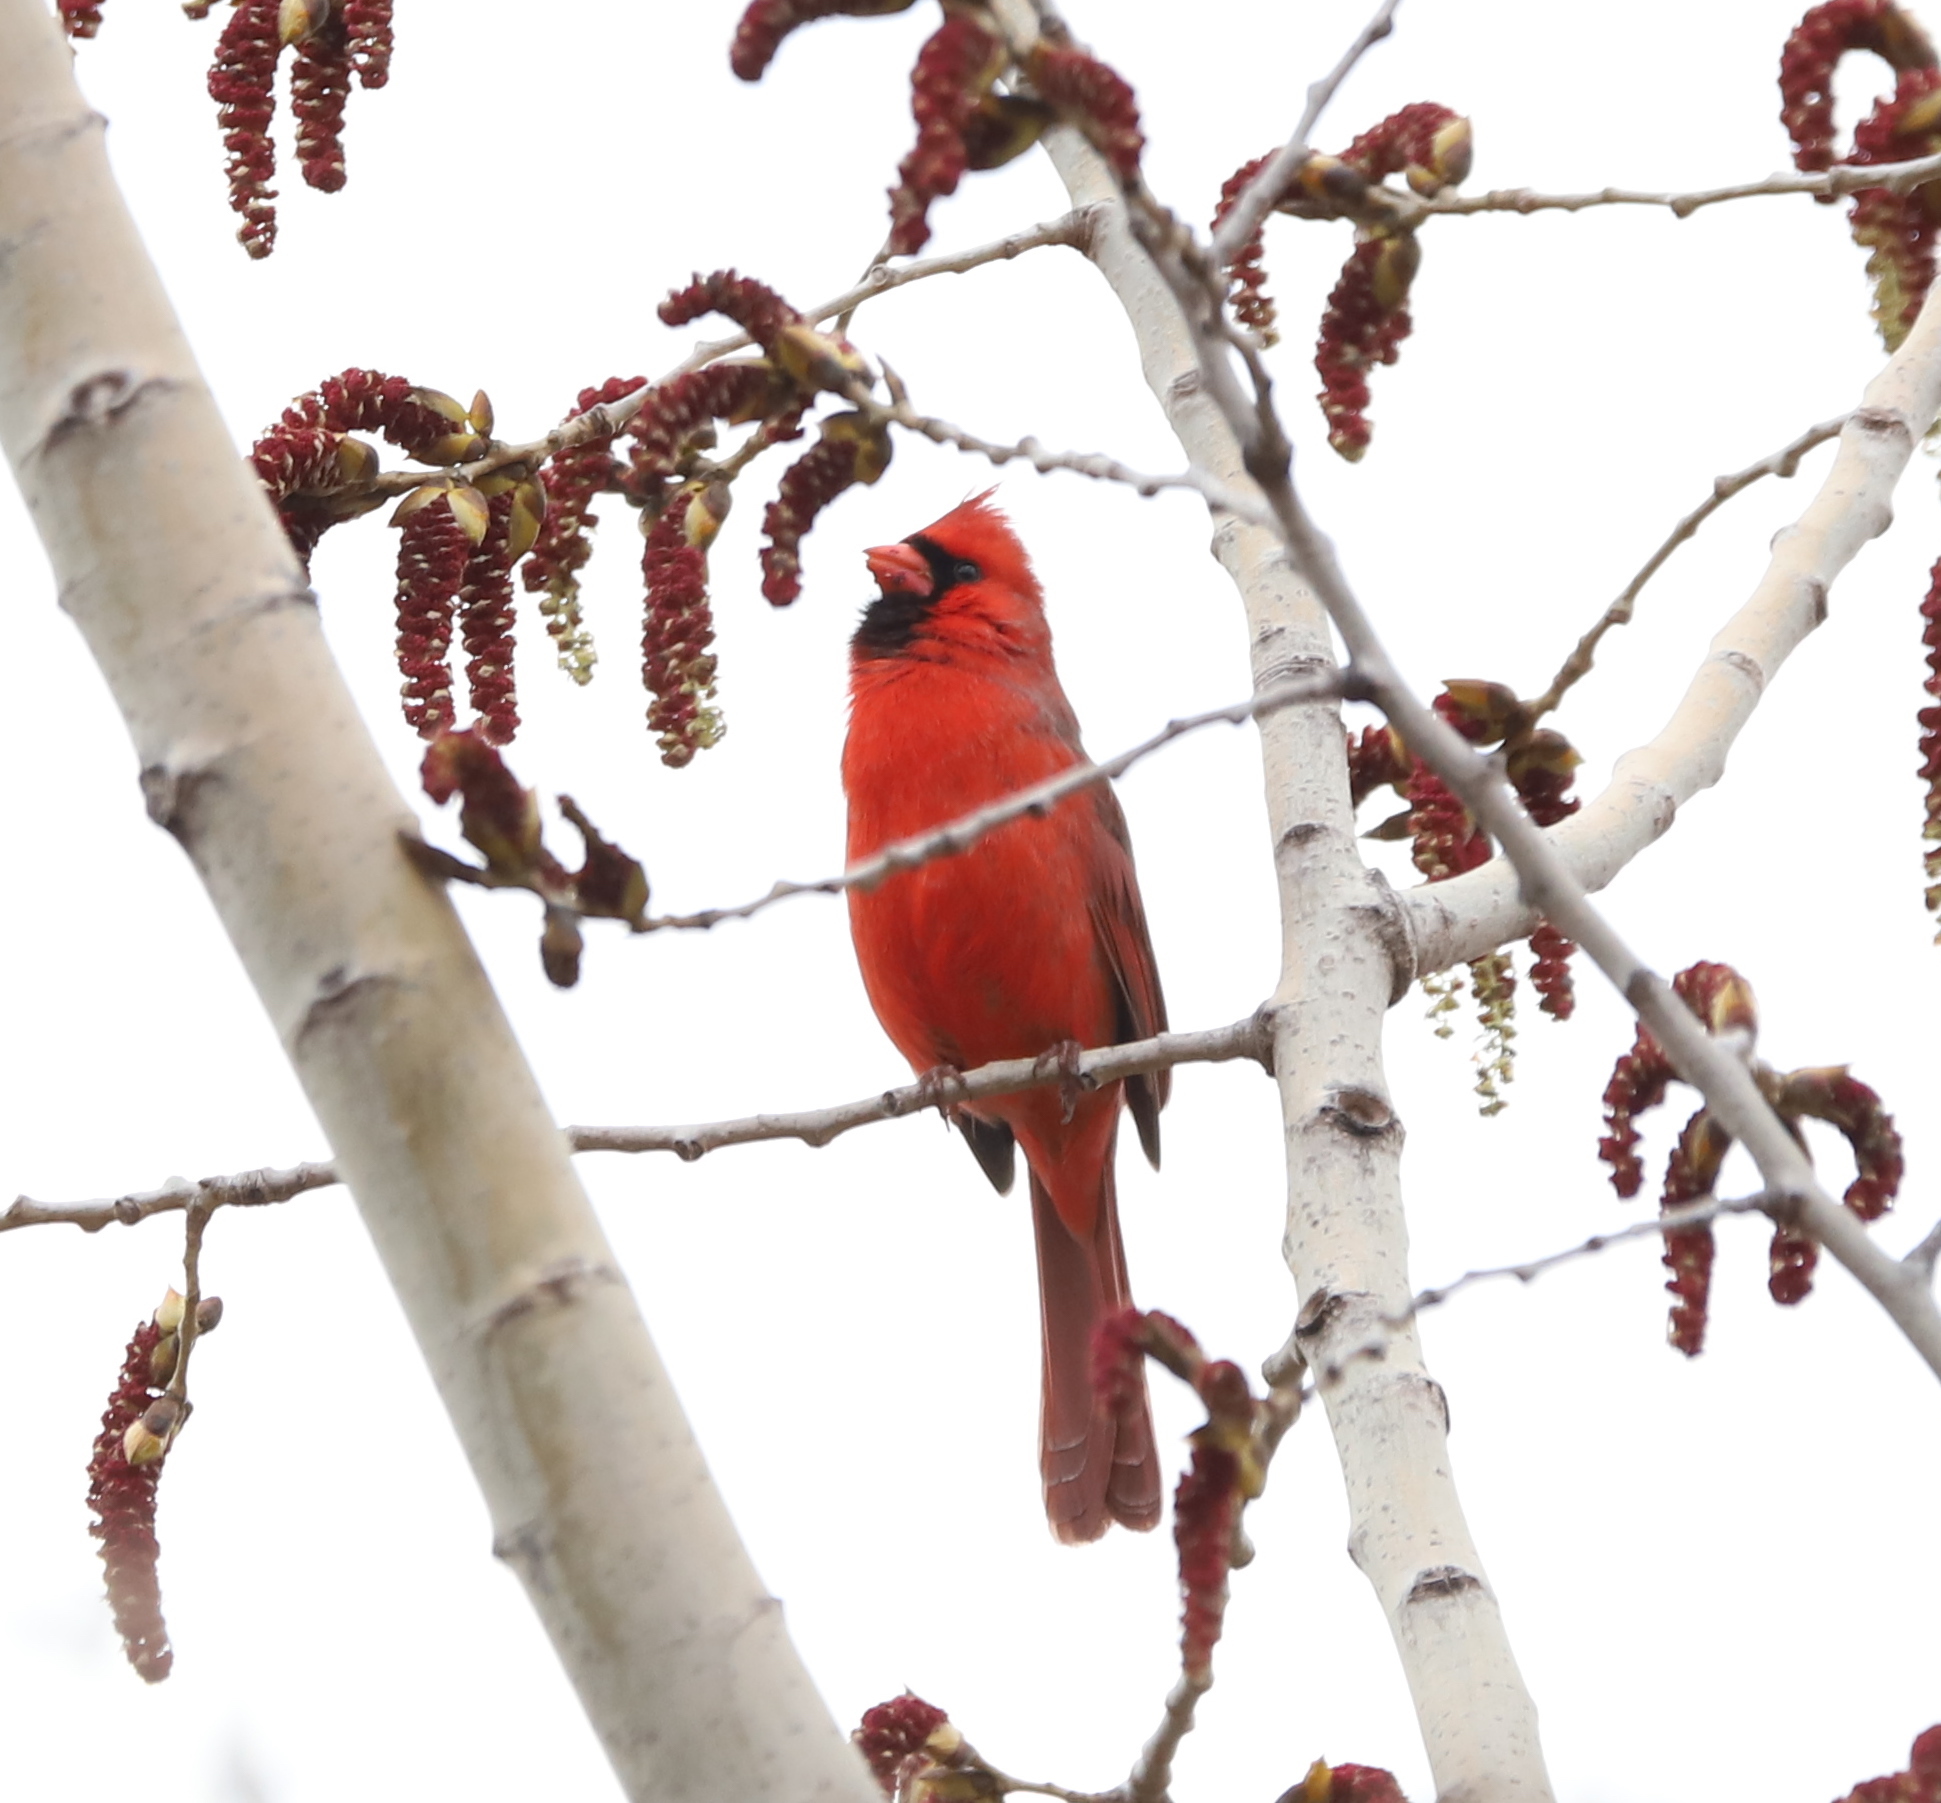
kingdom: Animalia
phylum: Chordata
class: Aves
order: Passeriformes
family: Cardinalidae
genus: Cardinalis
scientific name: Cardinalis cardinalis
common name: Northern cardinal
